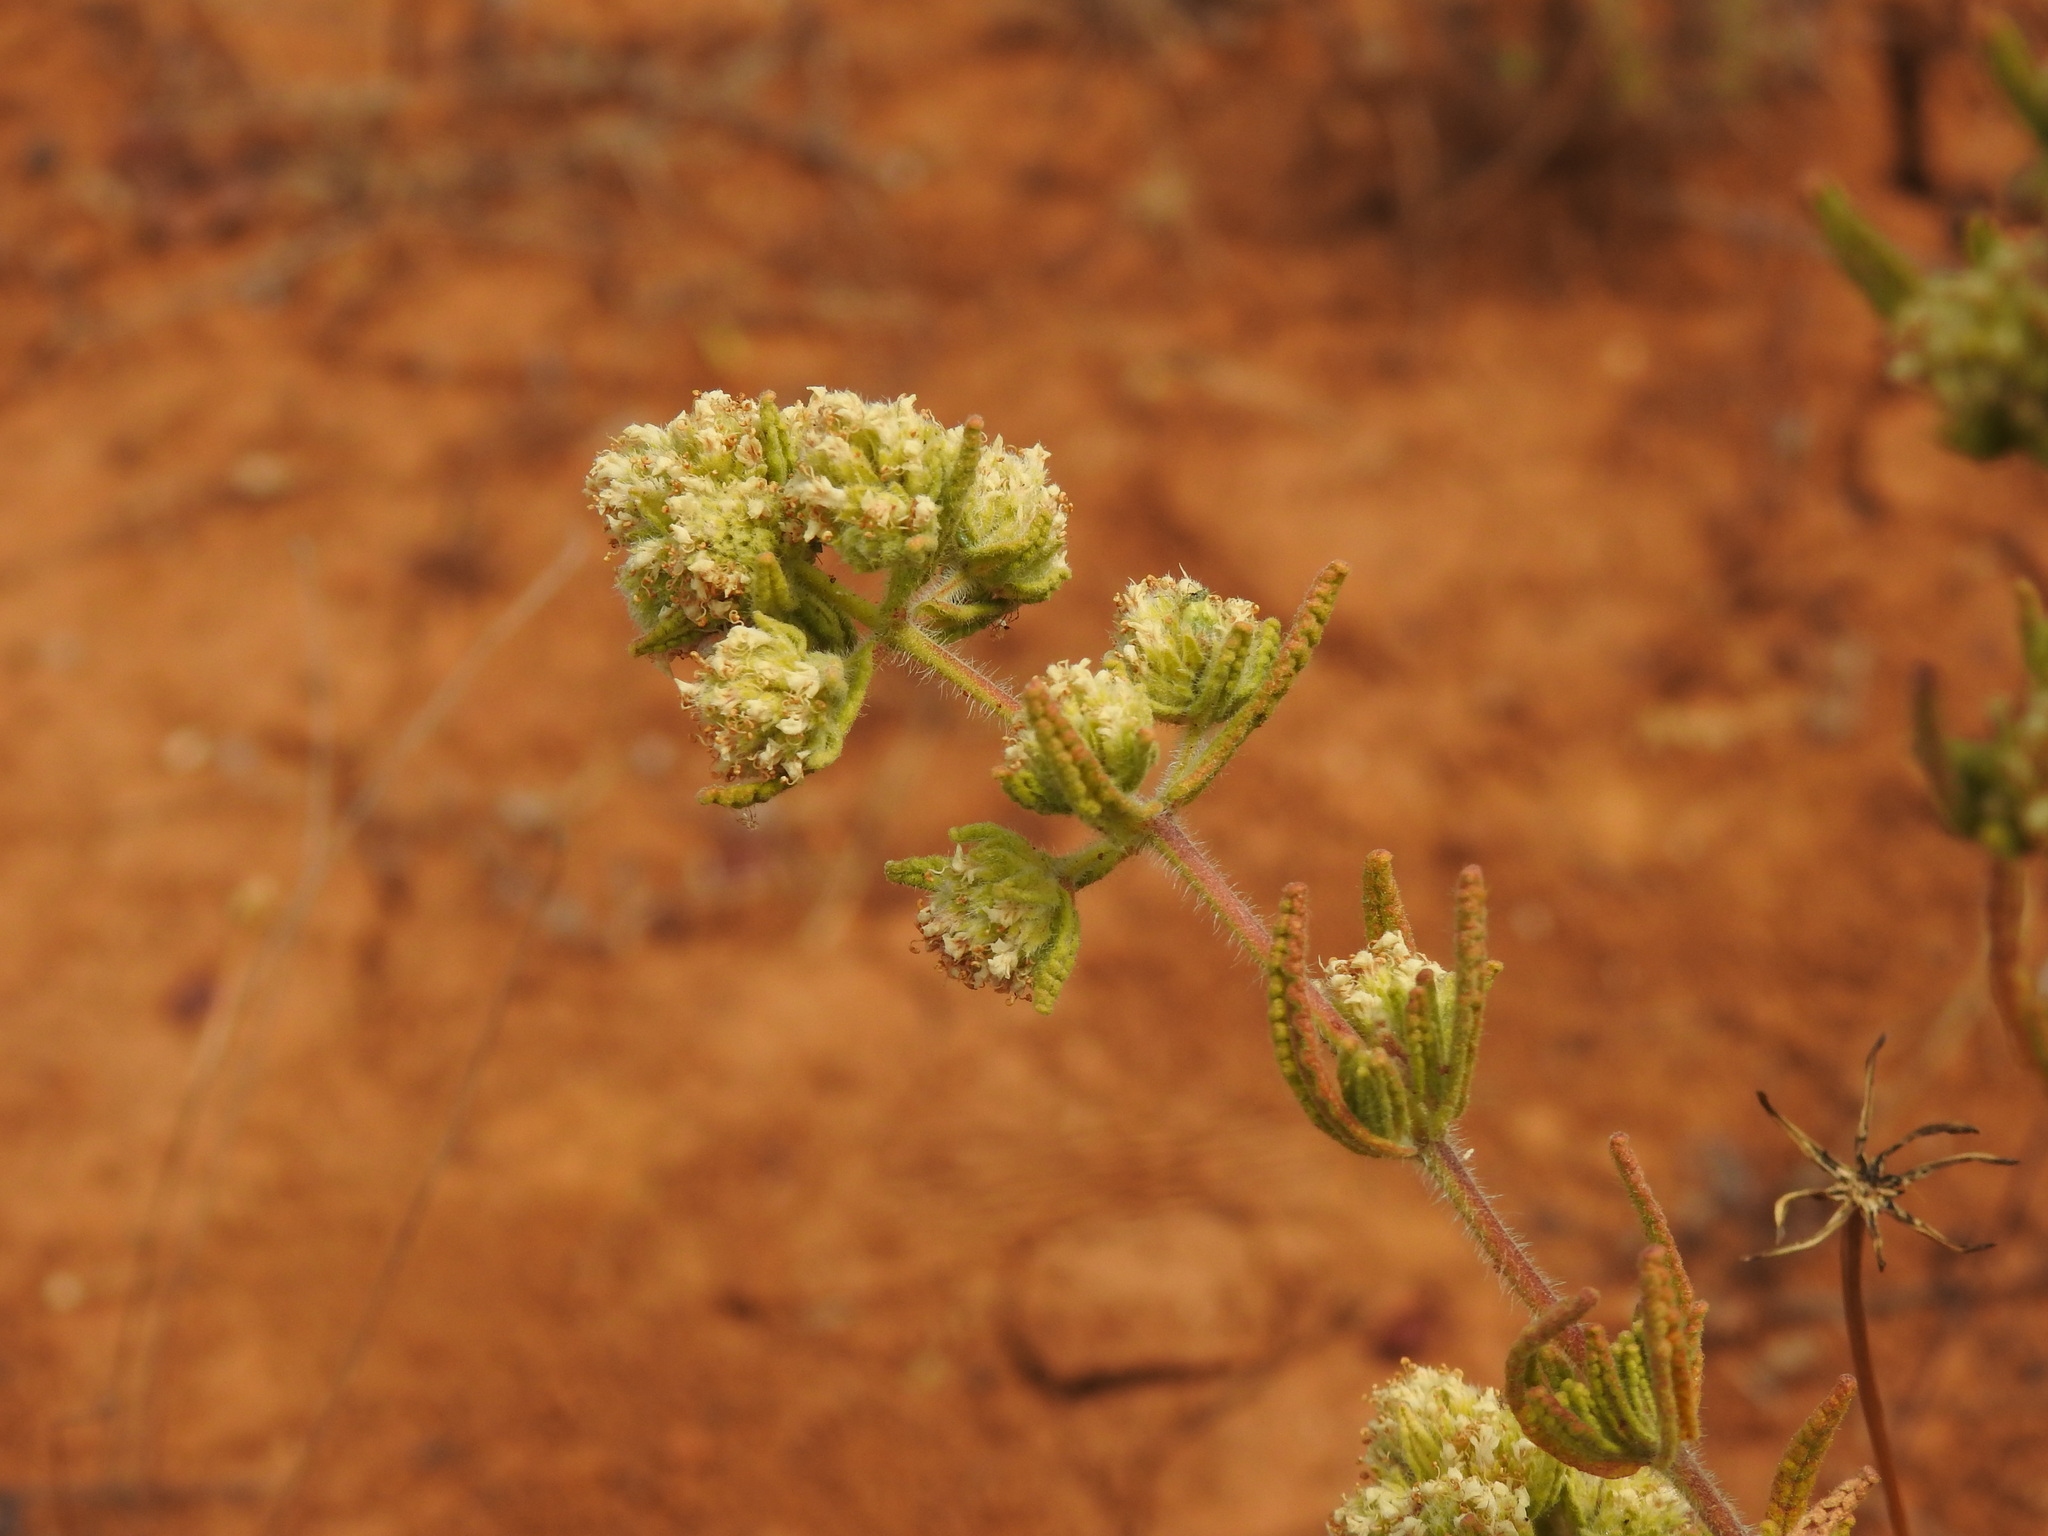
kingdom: Plantae
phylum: Tracheophyta
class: Magnoliopsida
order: Lamiales
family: Lamiaceae
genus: Teucrium
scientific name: Teucrium haenseleri
